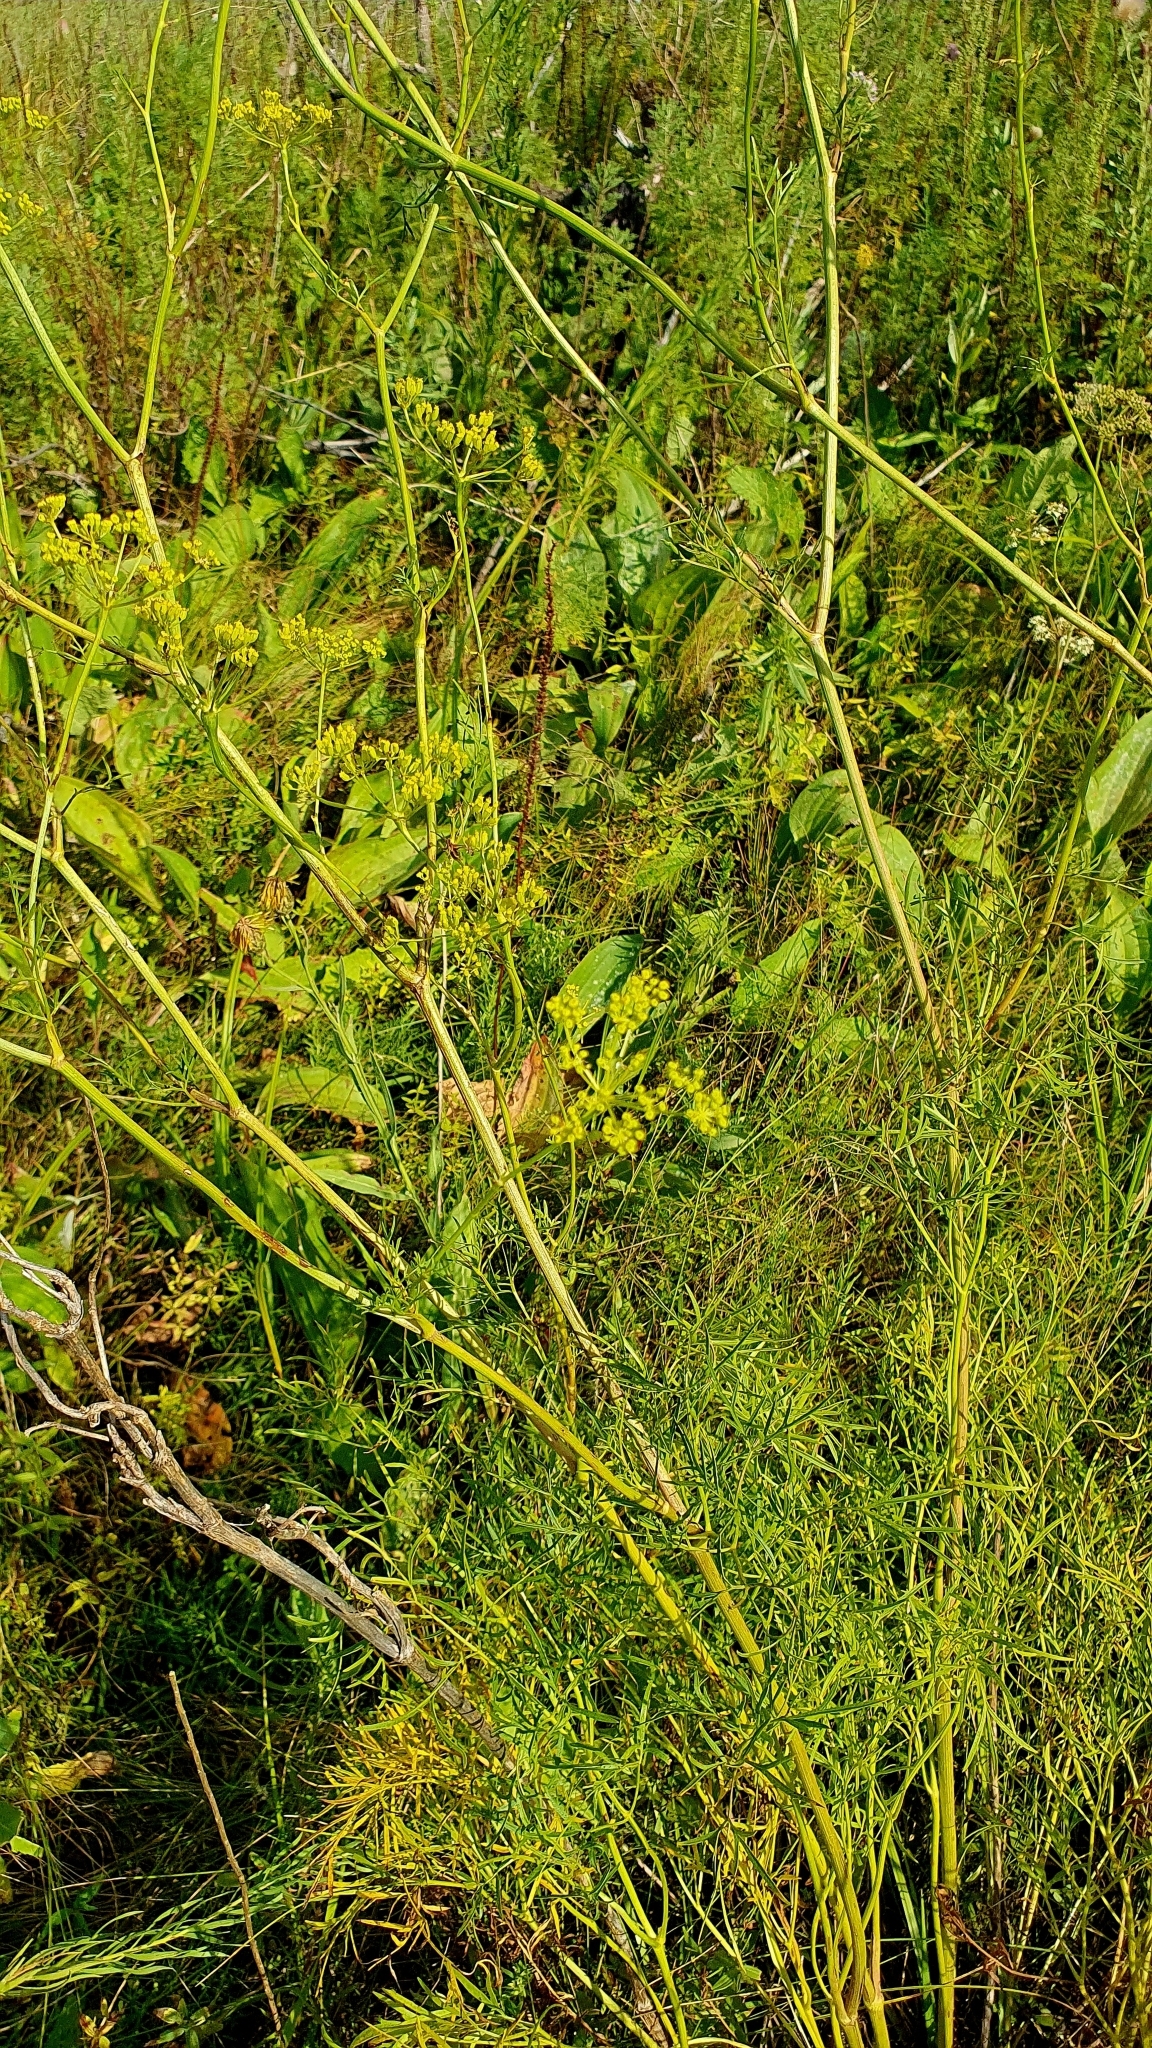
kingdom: Plantae
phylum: Tracheophyta
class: Magnoliopsida
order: Apiales
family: Apiaceae
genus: Silaum
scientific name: Silaum silaus
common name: Pepper-saxifrage
